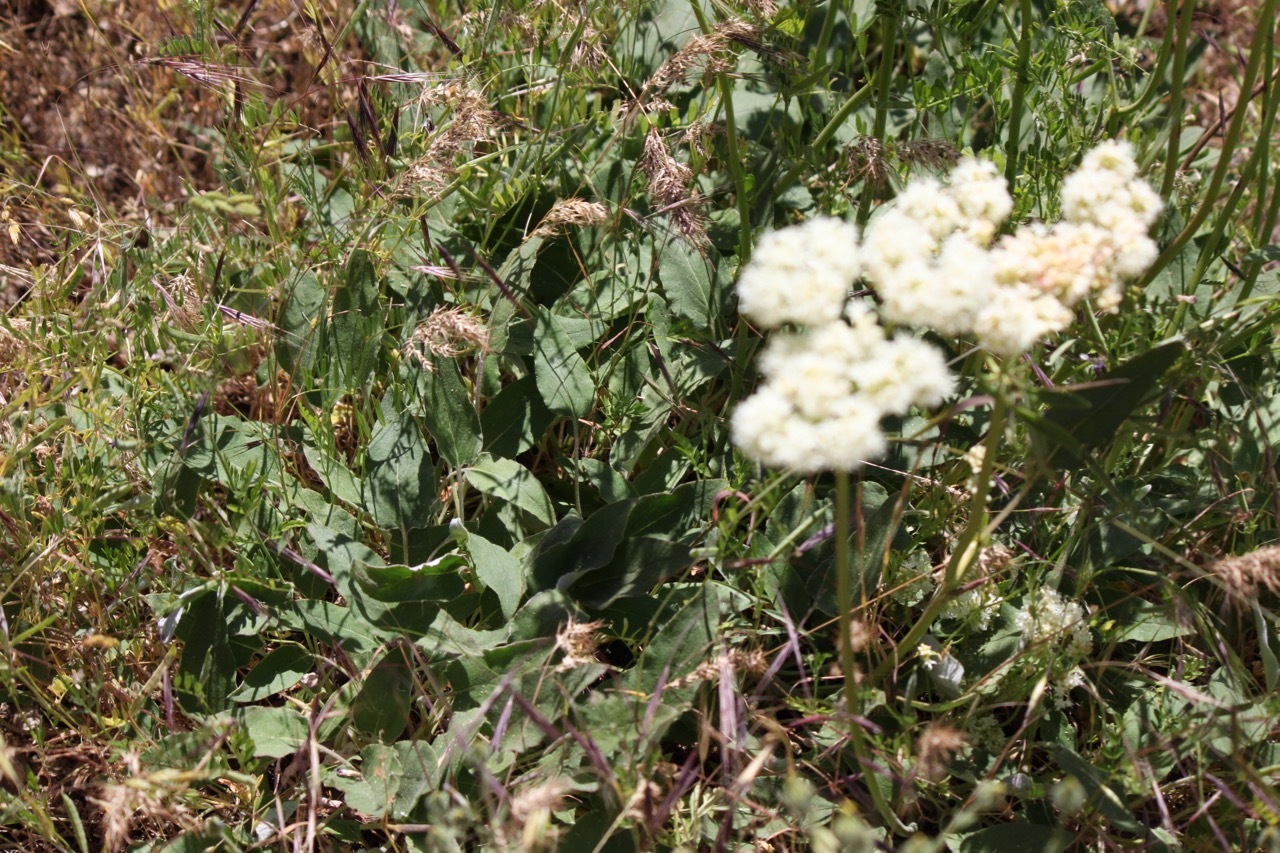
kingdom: Plantae
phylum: Tracheophyta
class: Magnoliopsida
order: Caryophyllales
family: Polygonaceae
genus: Eriogonum
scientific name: Eriogonum compositum
